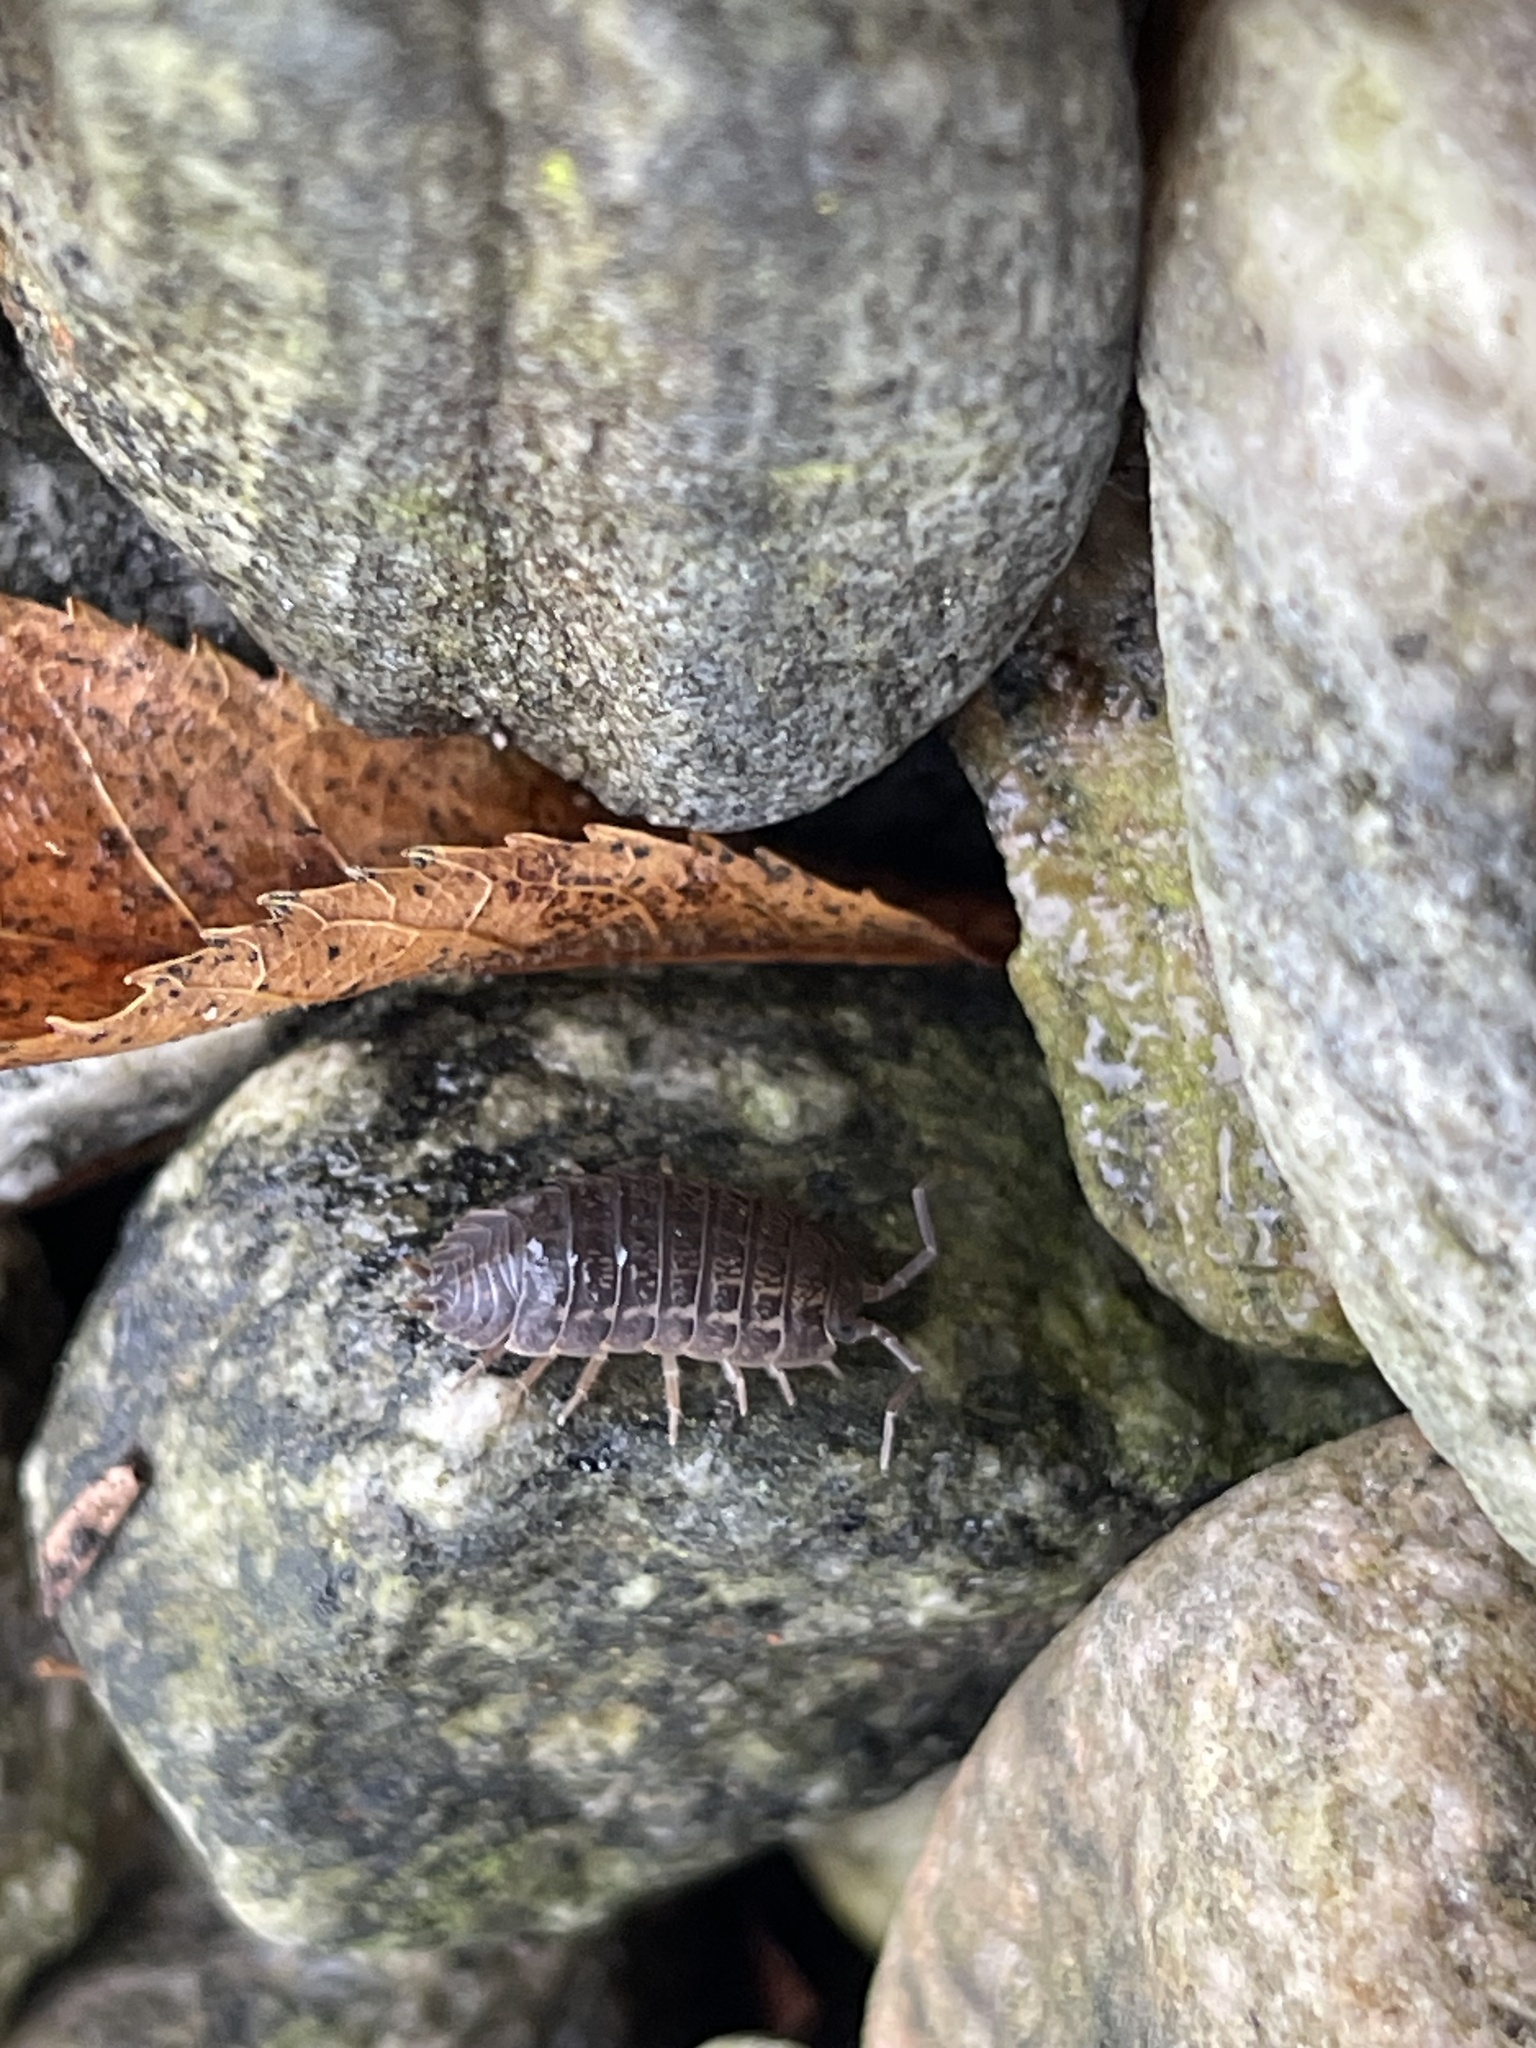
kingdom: Animalia
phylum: Arthropoda
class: Malacostraca
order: Isopoda
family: Trachelipodidae
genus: Trachelipus
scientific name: Trachelipus rathkii
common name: Isopod
